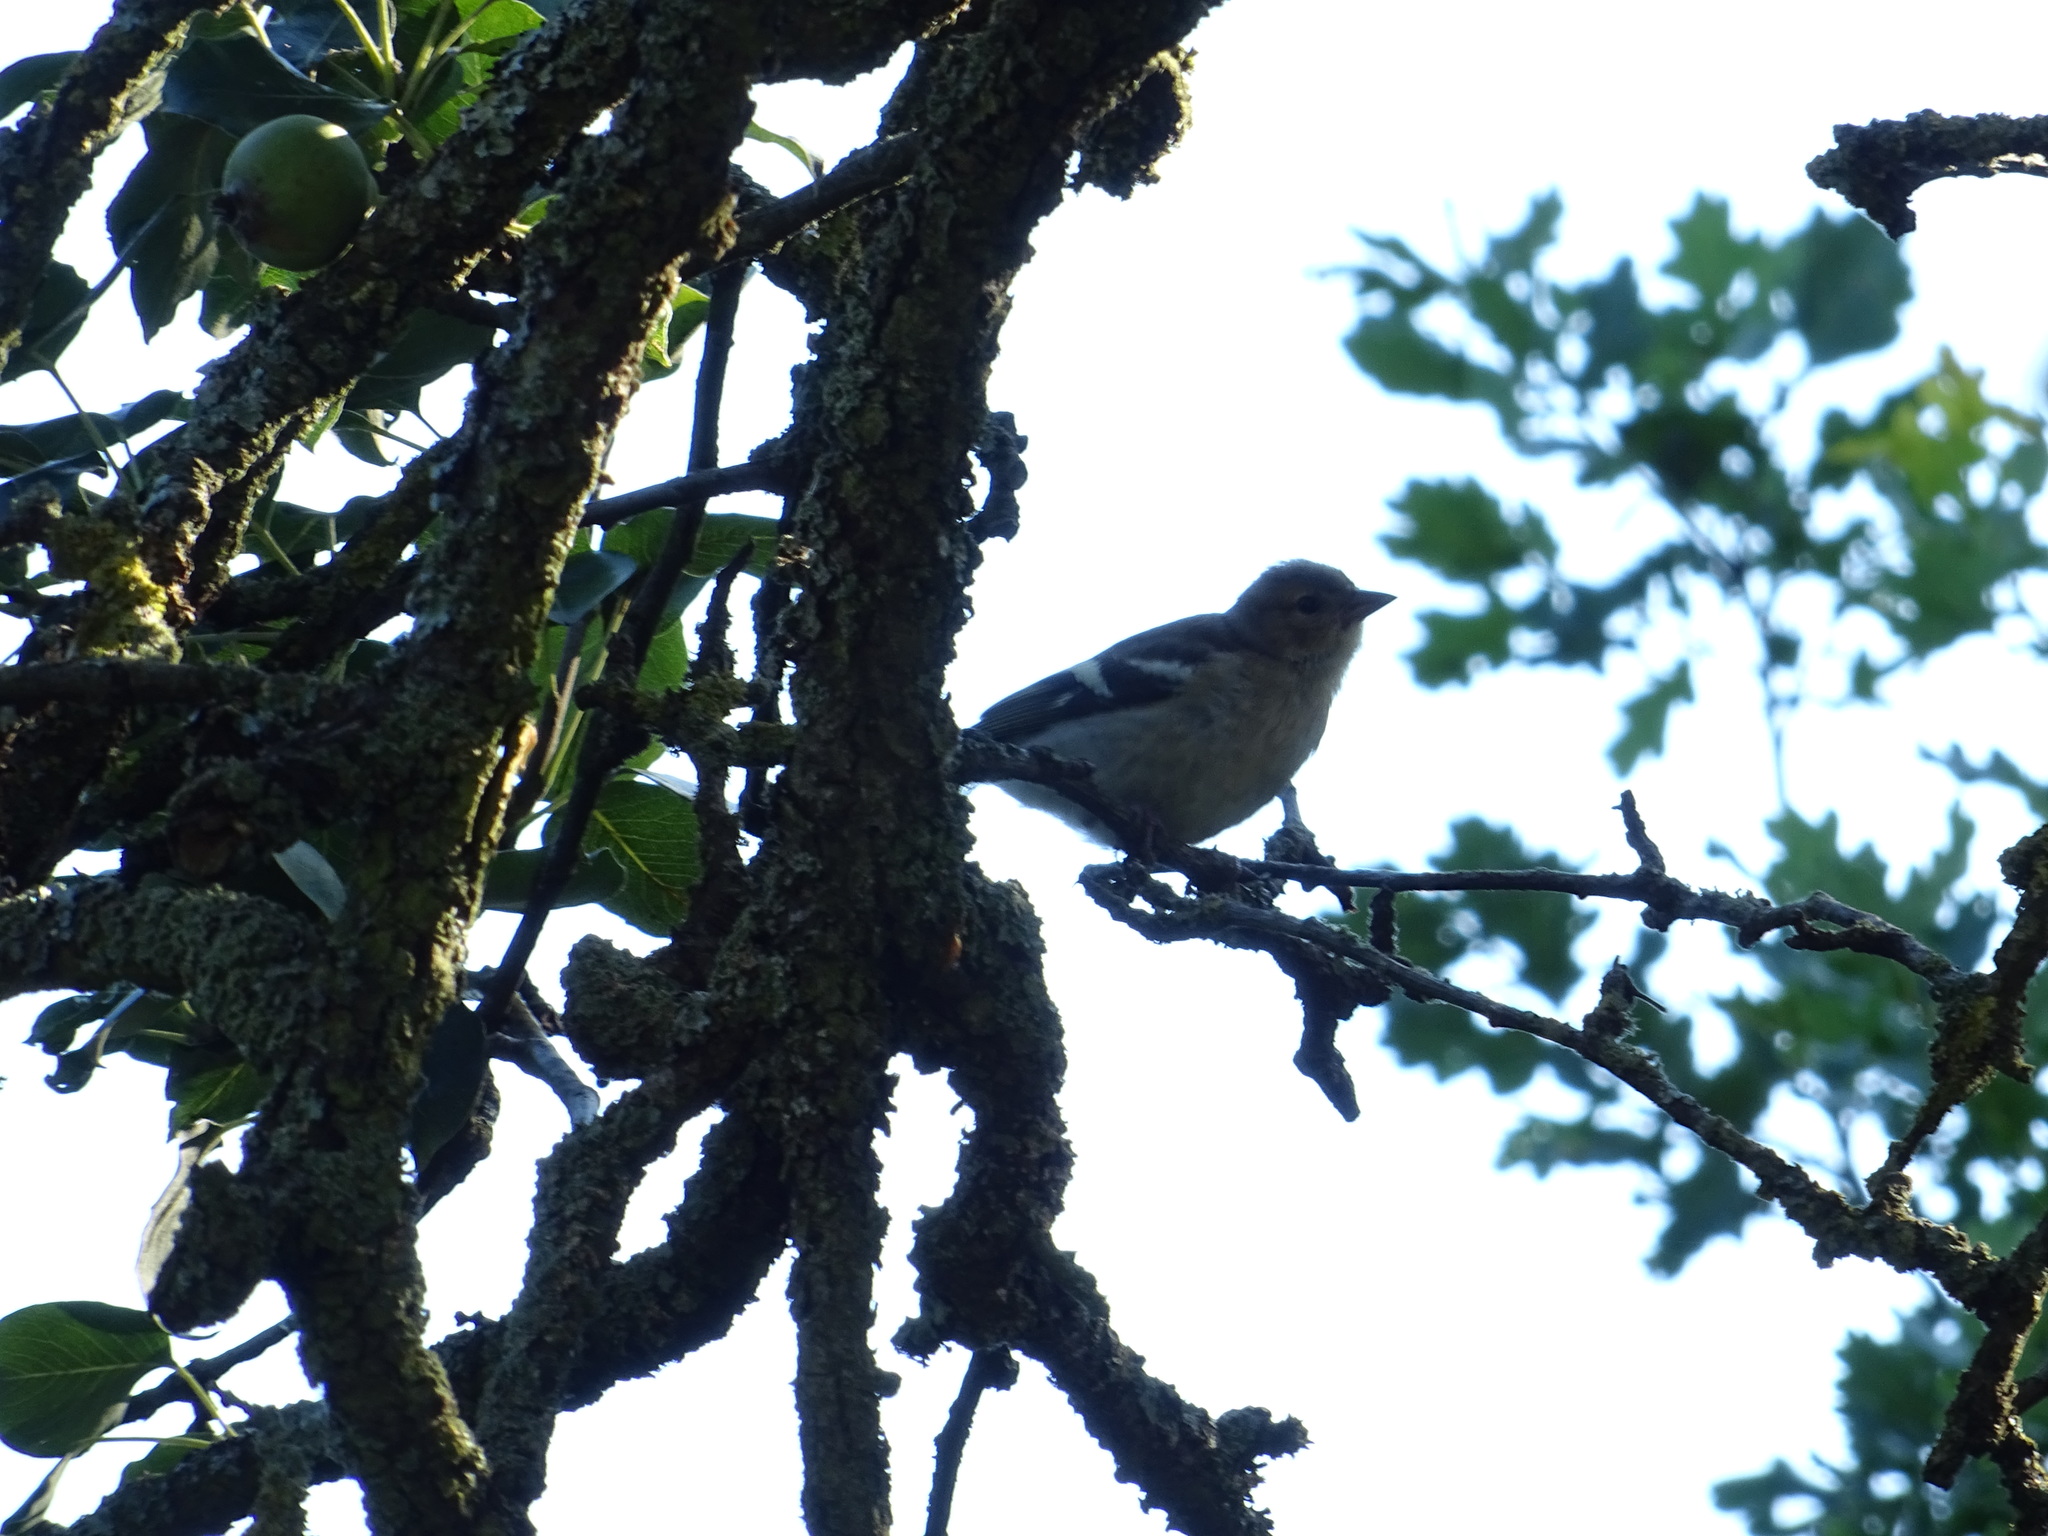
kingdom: Animalia
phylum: Chordata
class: Aves
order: Passeriformes
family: Fringillidae
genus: Fringilla
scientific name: Fringilla coelebs
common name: Common chaffinch
